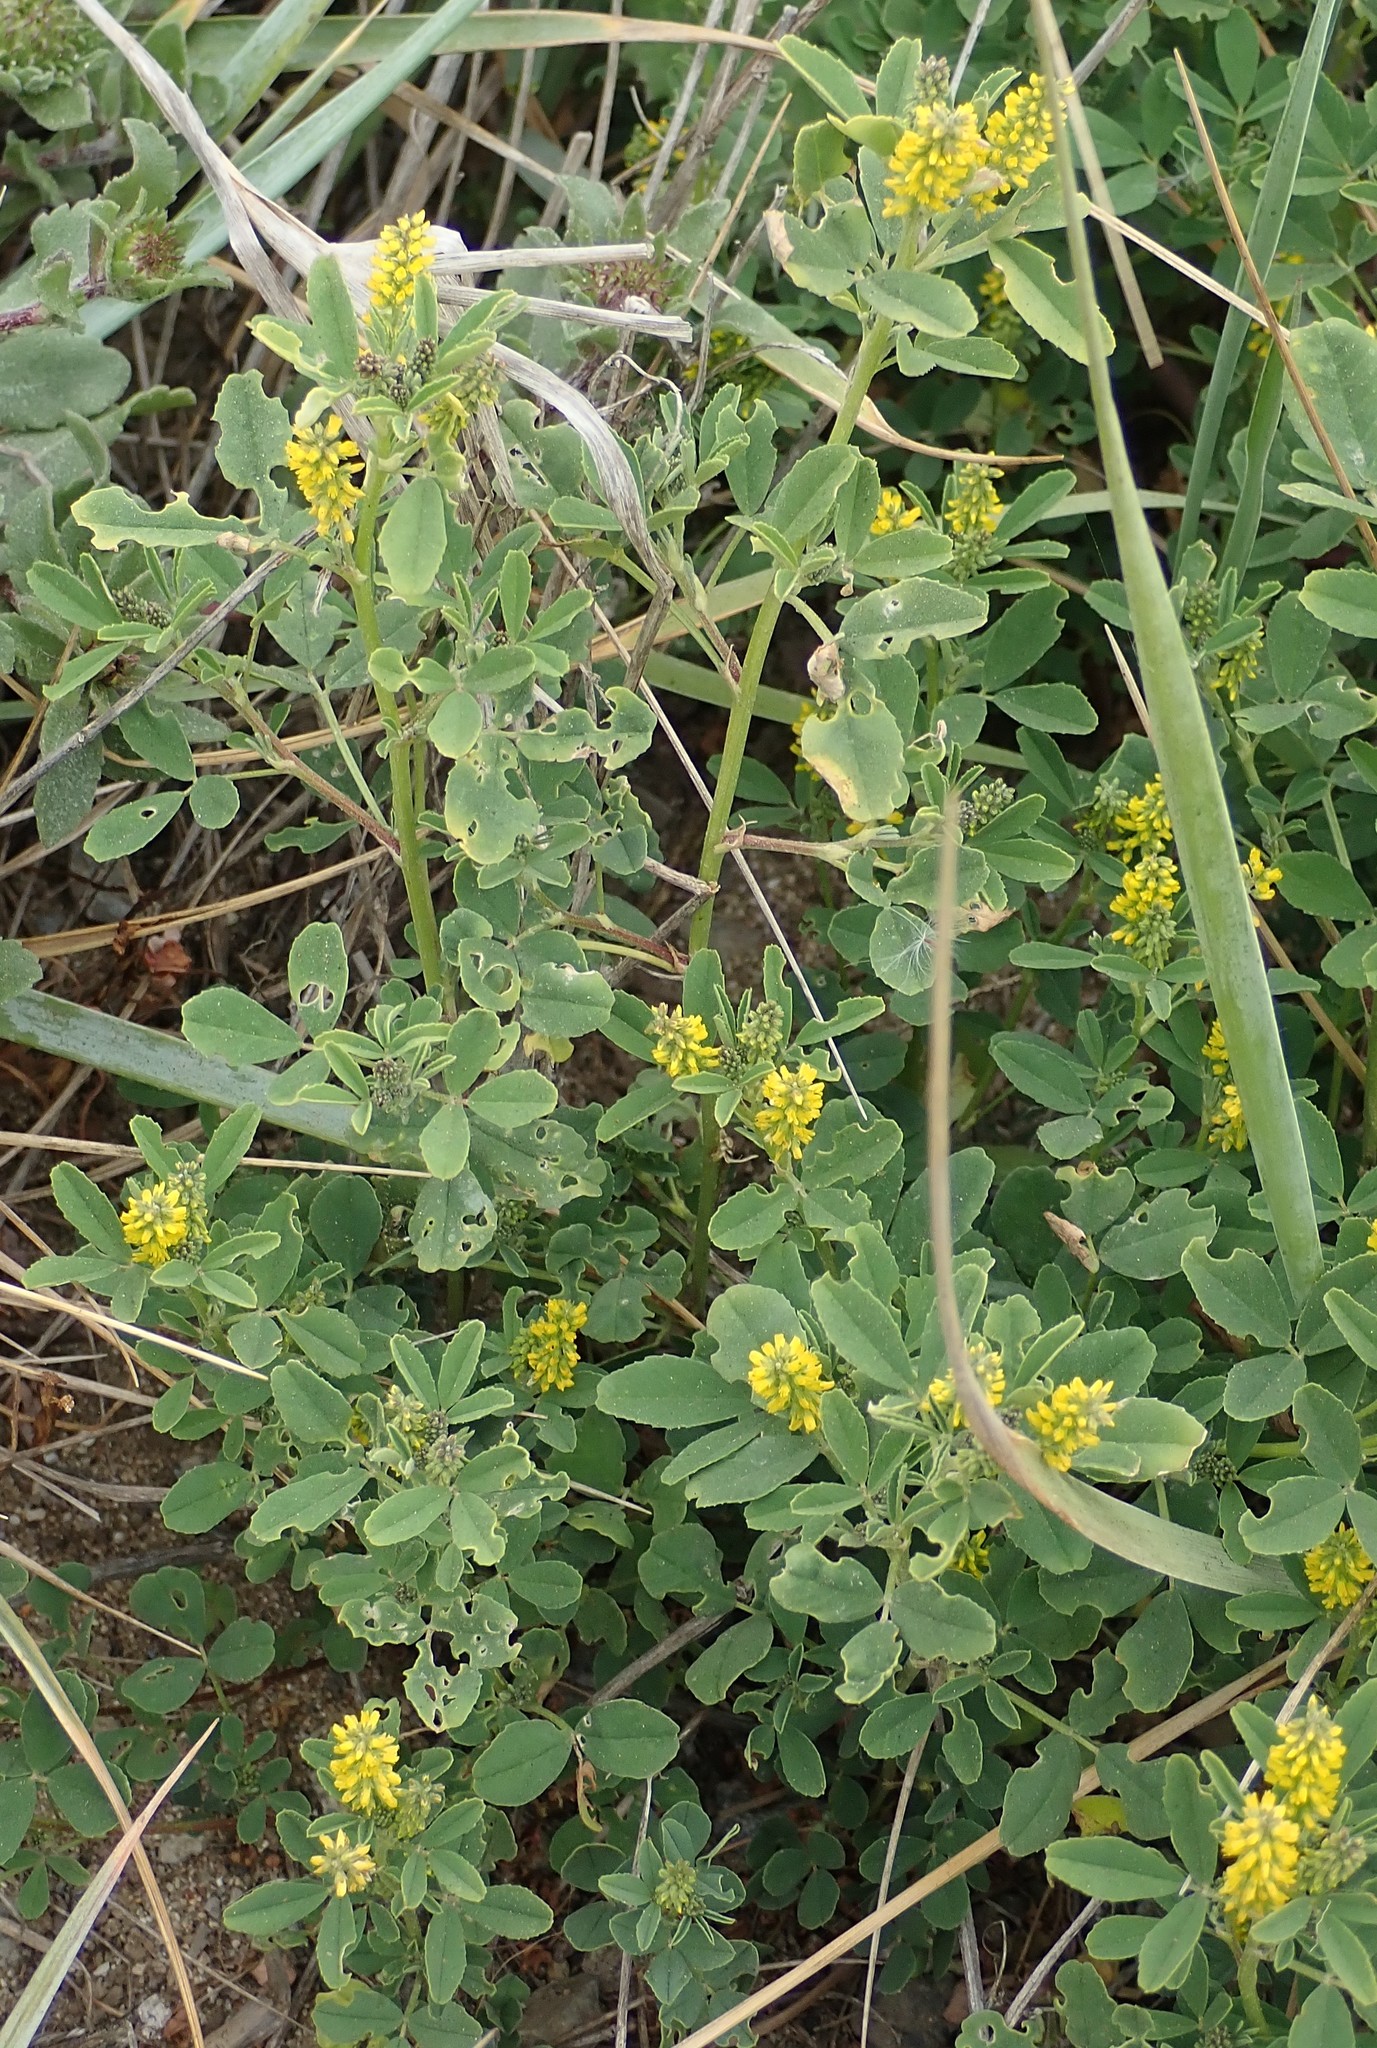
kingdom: Plantae
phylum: Tracheophyta
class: Magnoliopsida
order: Fabales
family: Fabaceae
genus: Melilotus
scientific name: Melilotus indicus
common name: Small melilot
